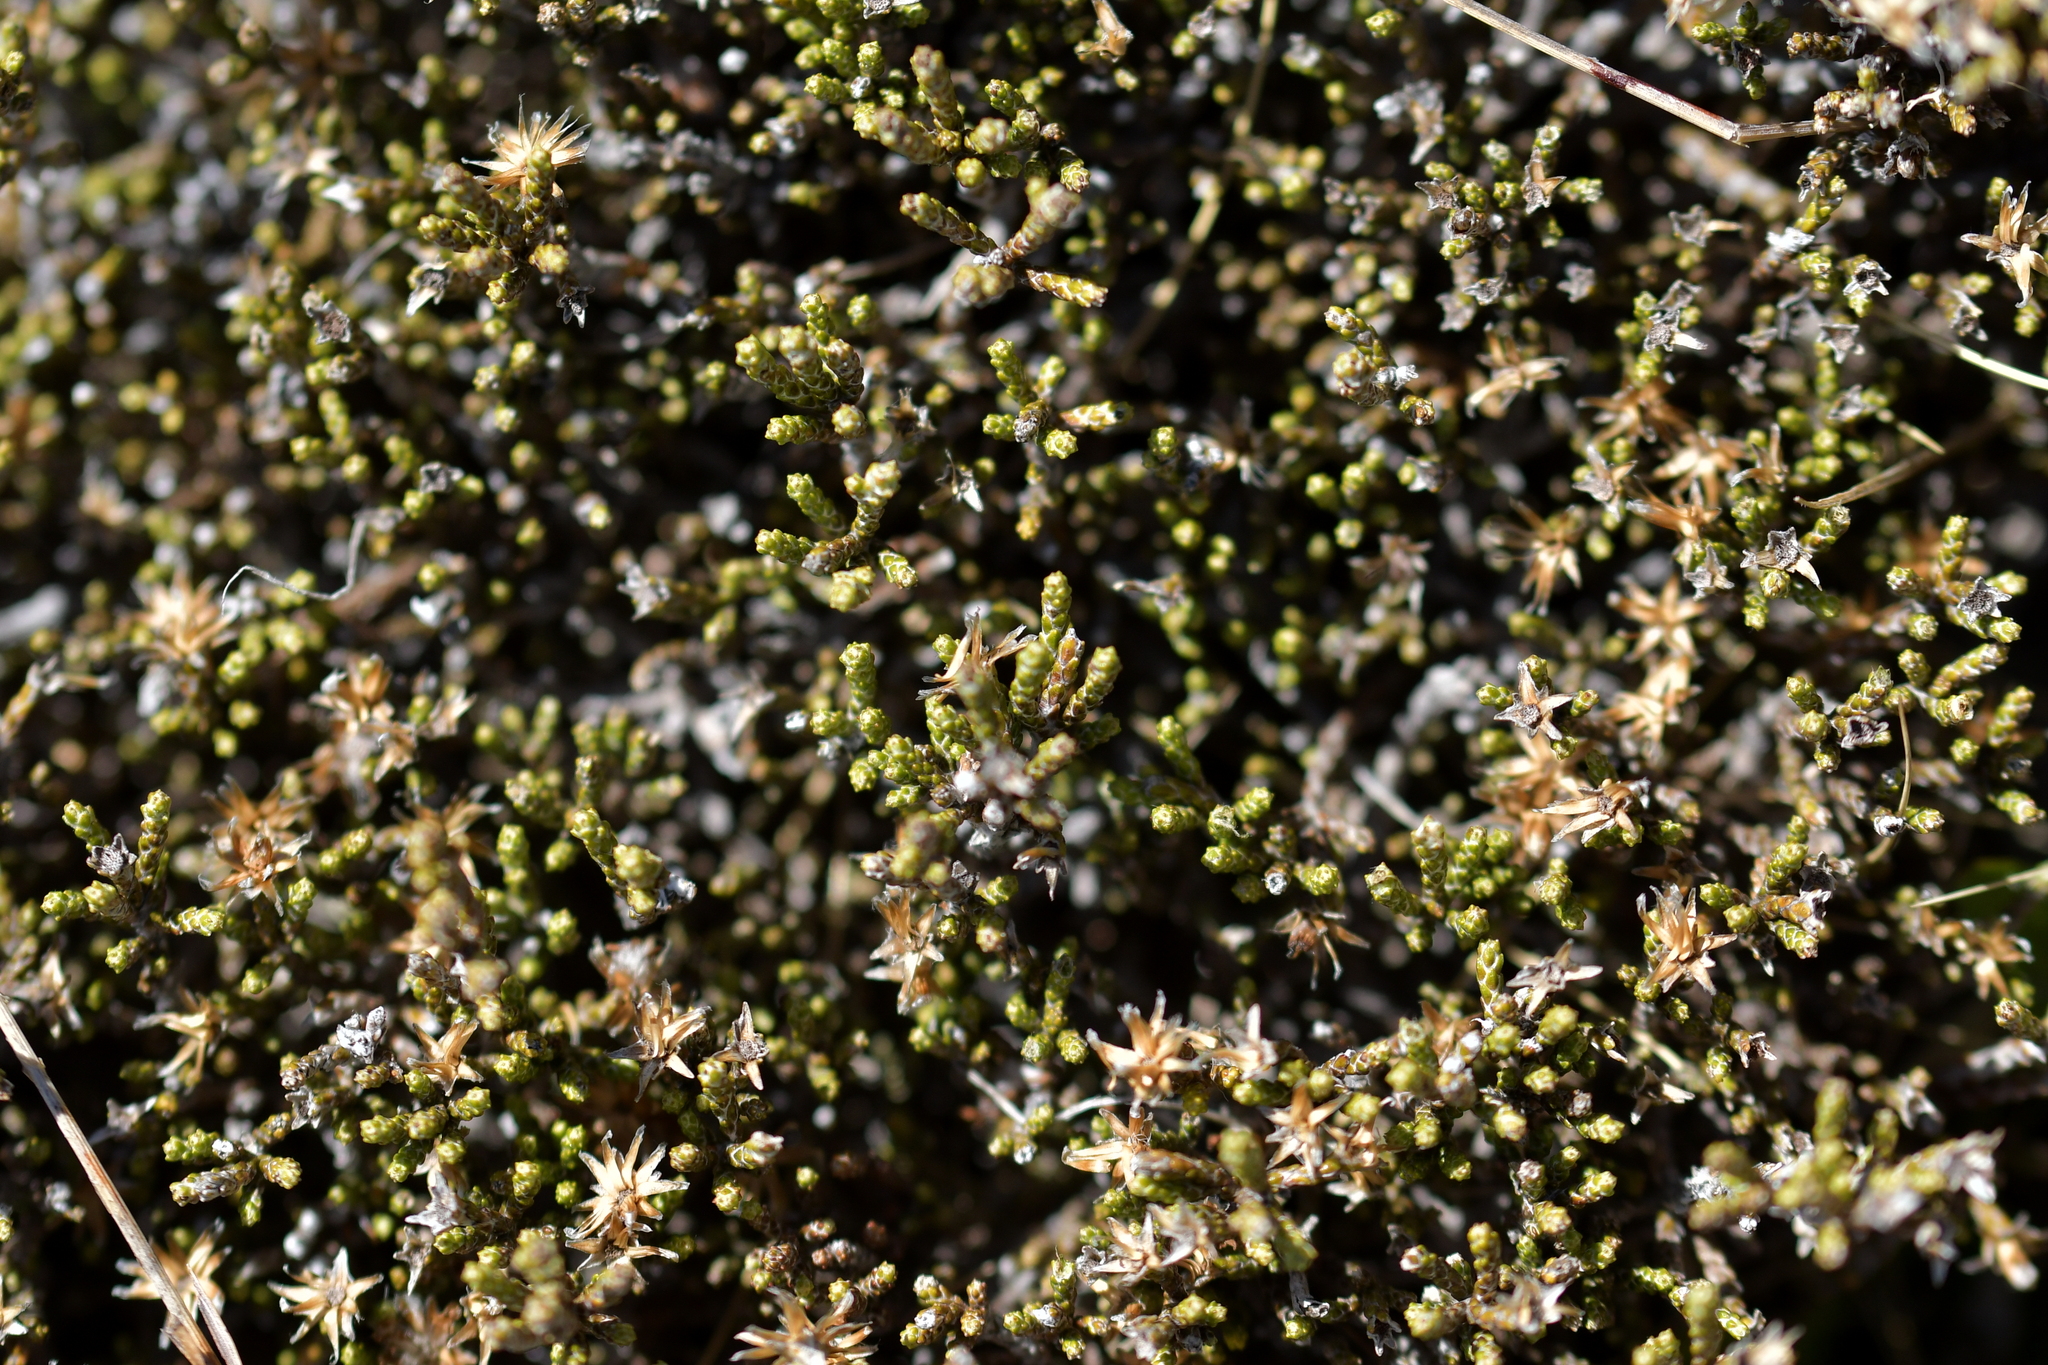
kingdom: Plantae
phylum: Tracheophyta
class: Magnoliopsida
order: Asterales
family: Asteraceae
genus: Ozothamnus
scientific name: Ozothamnus parvifolius
